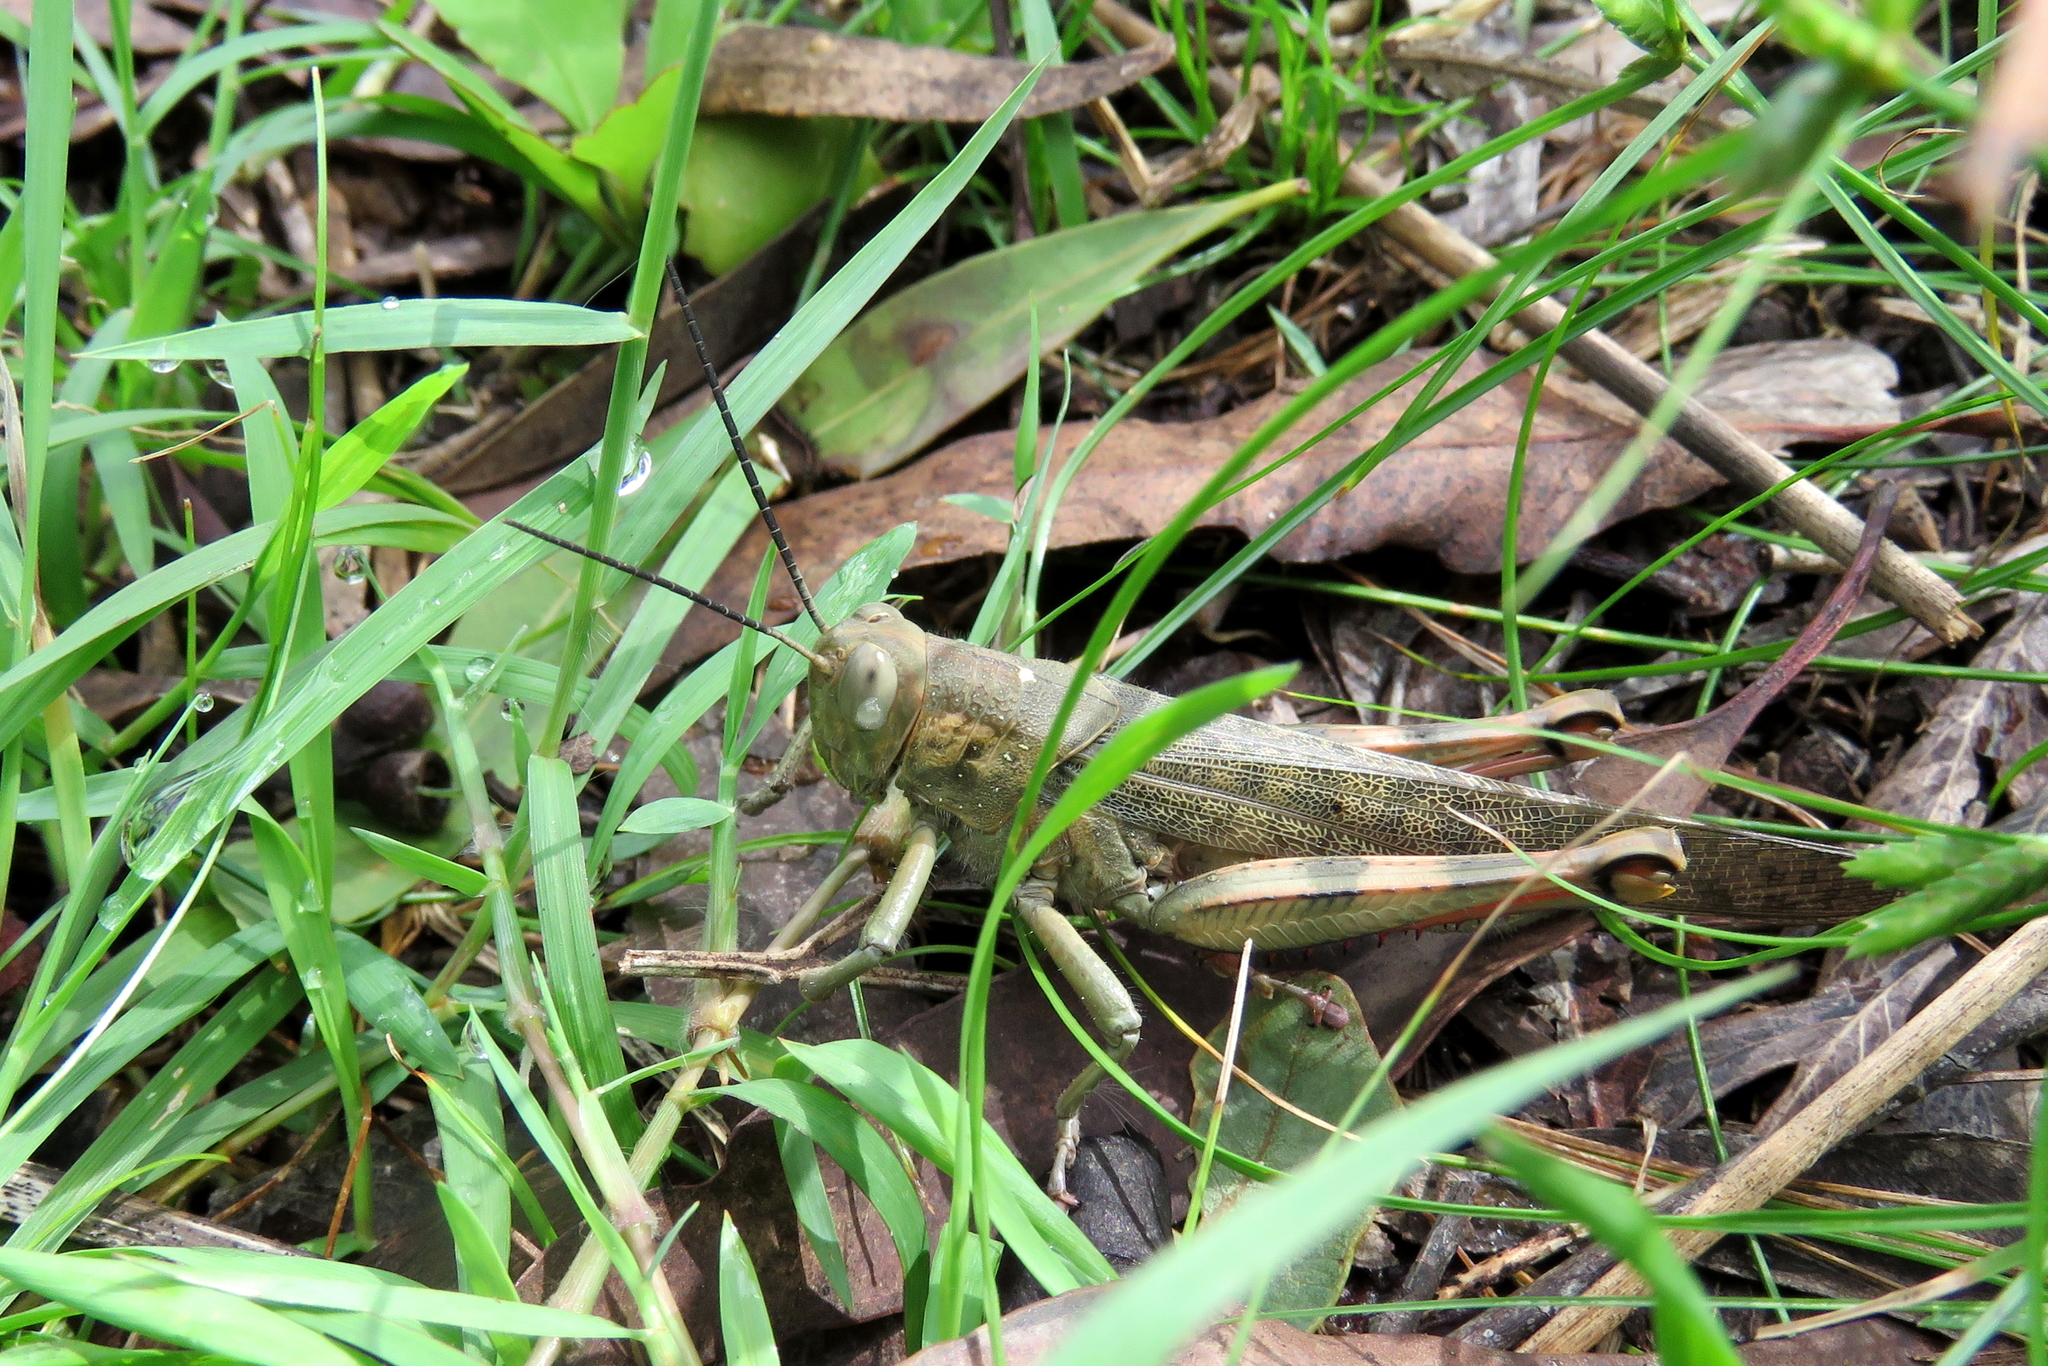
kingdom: Animalia
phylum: Arthropoda
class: Insecta
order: Orthoptera
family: Acrididae
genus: Valanga
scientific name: Valanga irregularis
